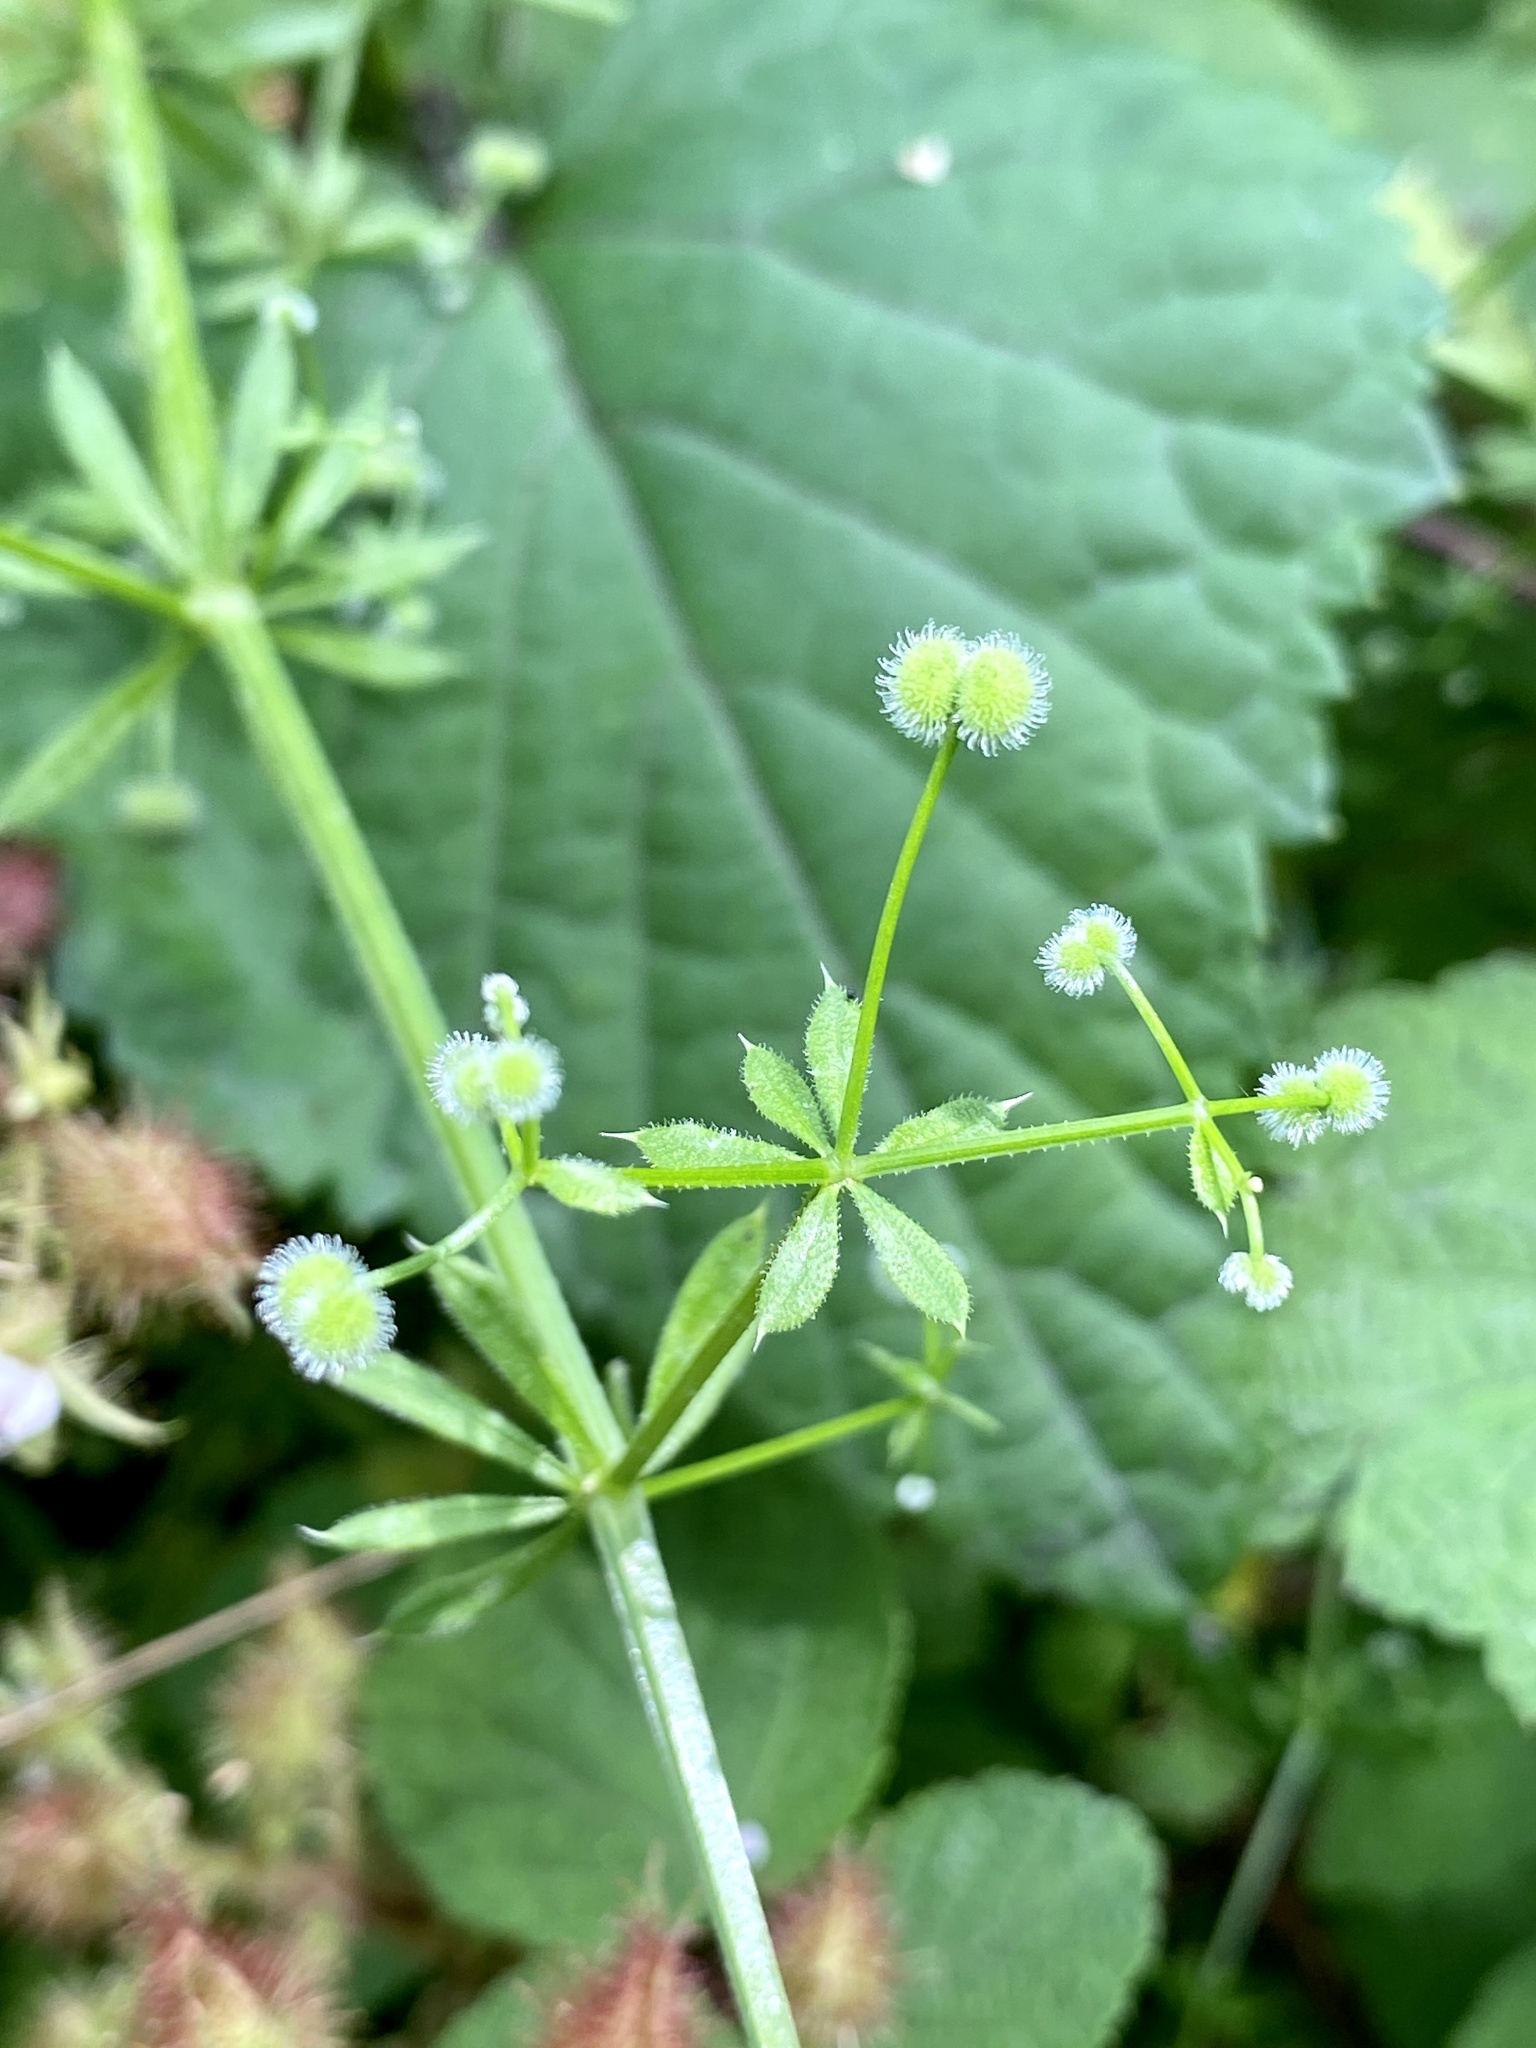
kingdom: Plantae
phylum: Tracheophyta
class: Magnoliopsida
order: Gentianales
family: Rubiaceae
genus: Galium
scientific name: Galium aparine
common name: Cleavers
